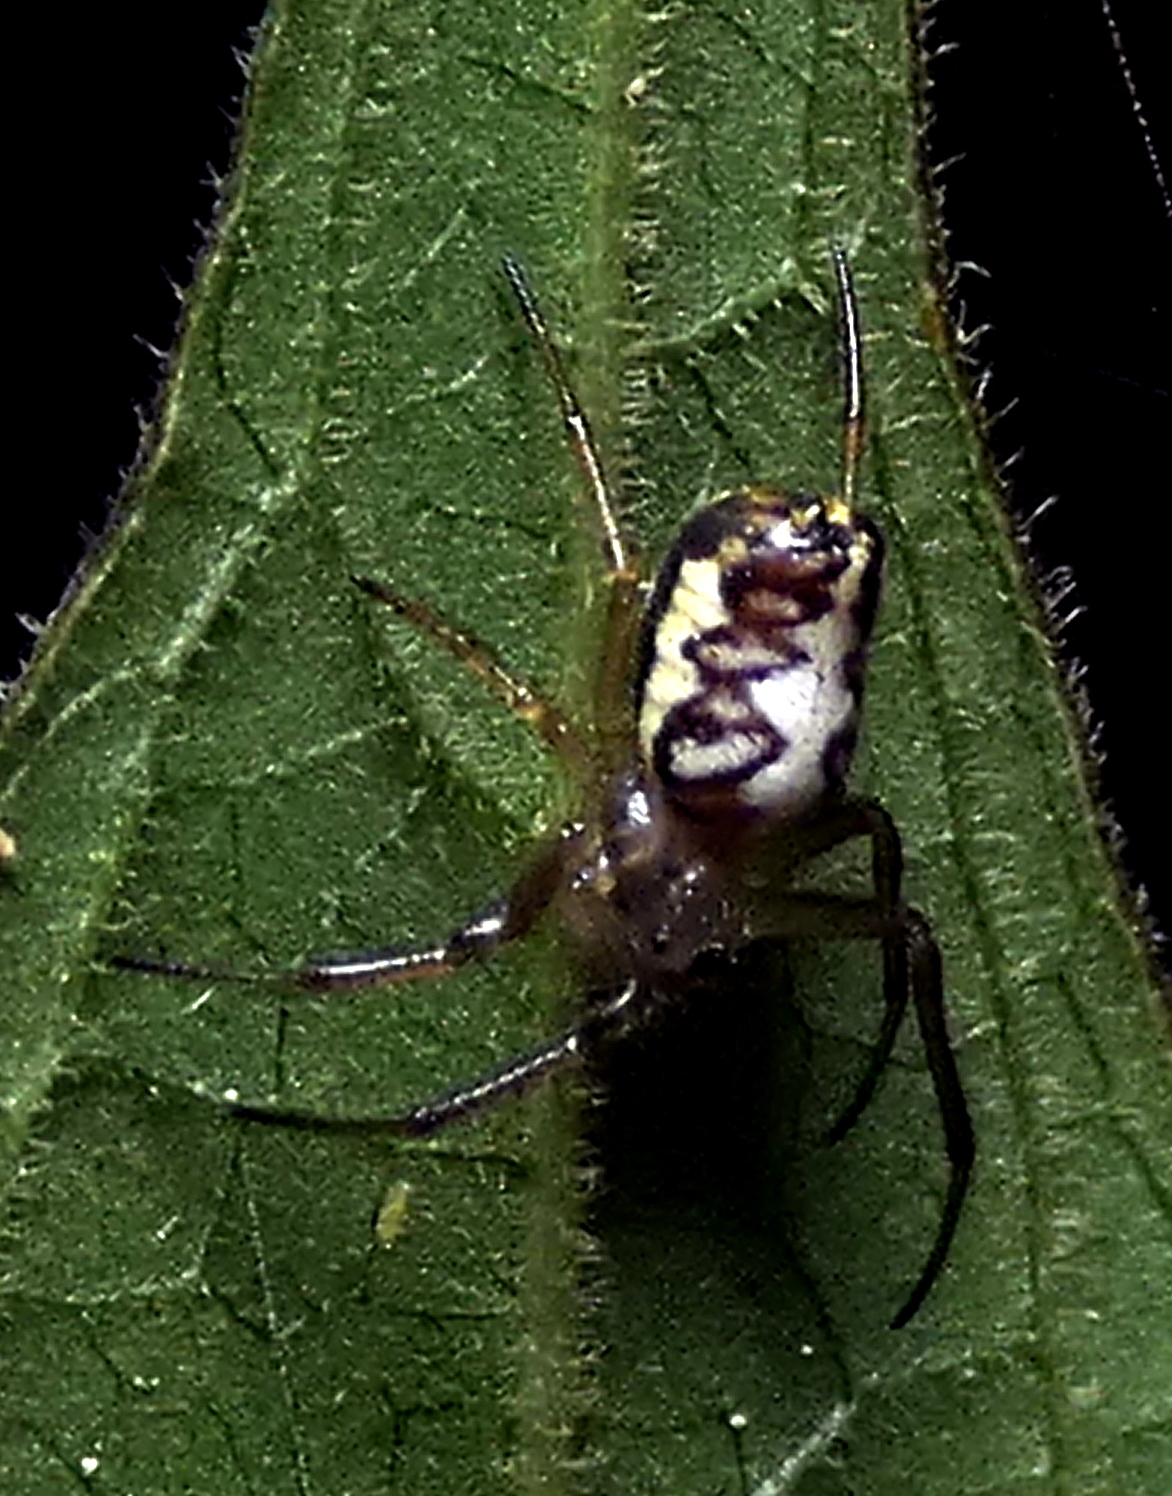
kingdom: Animalia
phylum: Arthropoda
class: Arachnida
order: Araneae
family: Araneidae
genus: Alpaida
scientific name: Alpaida moka
